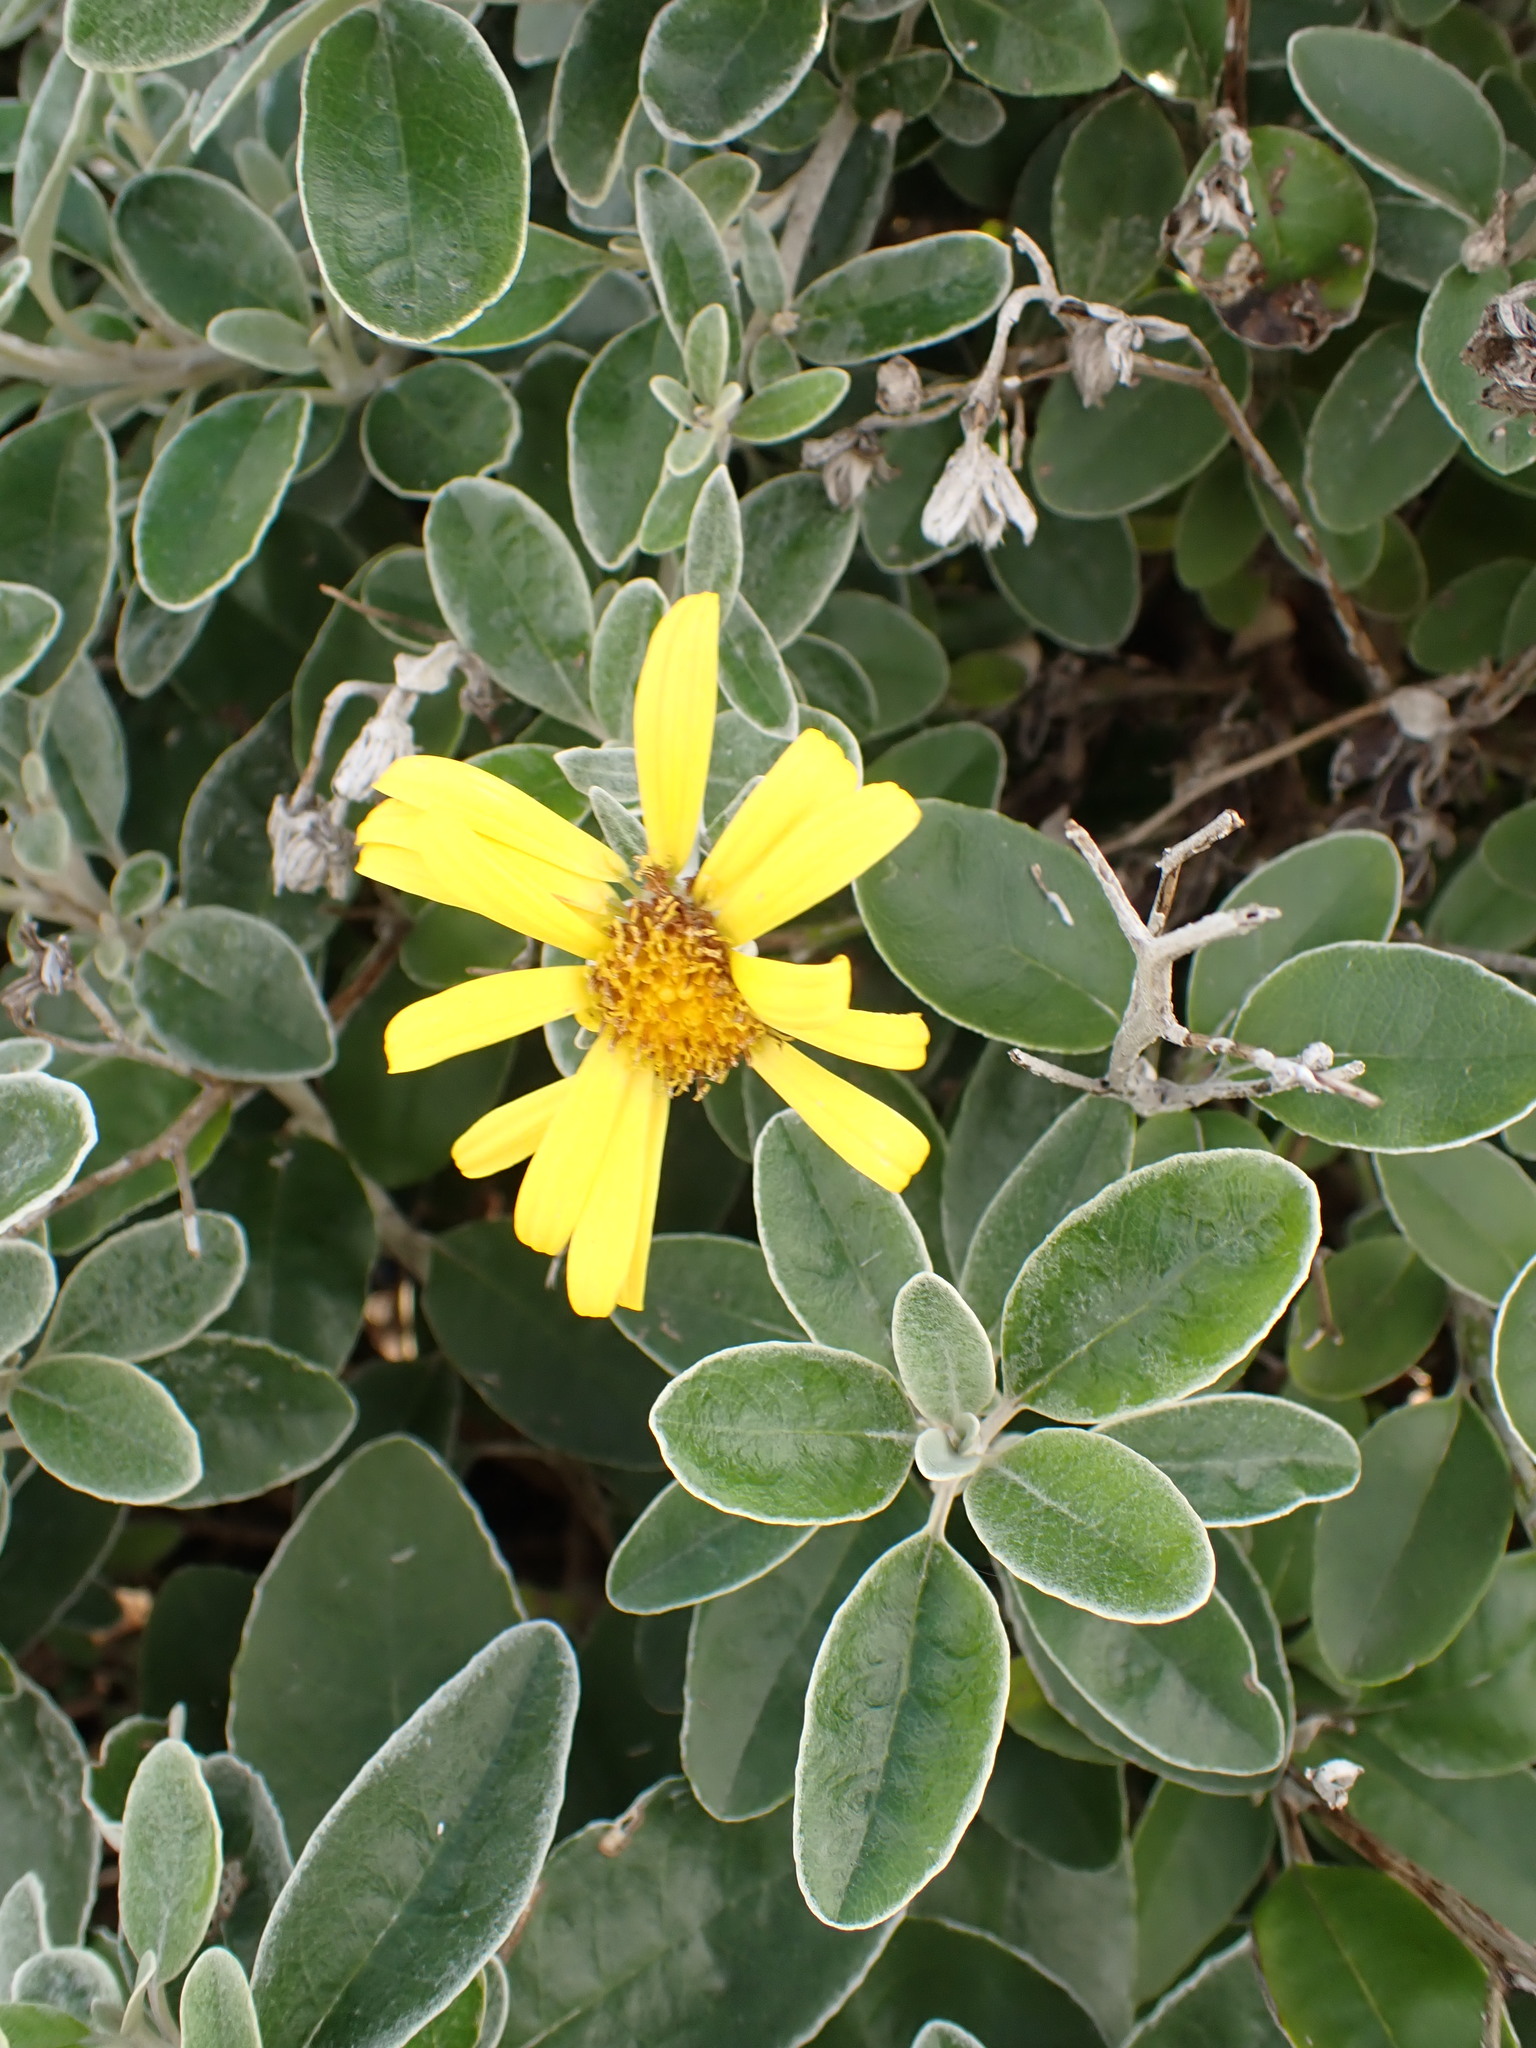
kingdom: Plantae
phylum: Tracheophyta
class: Magnoliopsida
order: Asterales
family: Asteraceae
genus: Brachyglottis
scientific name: Brachyglottis jubar
